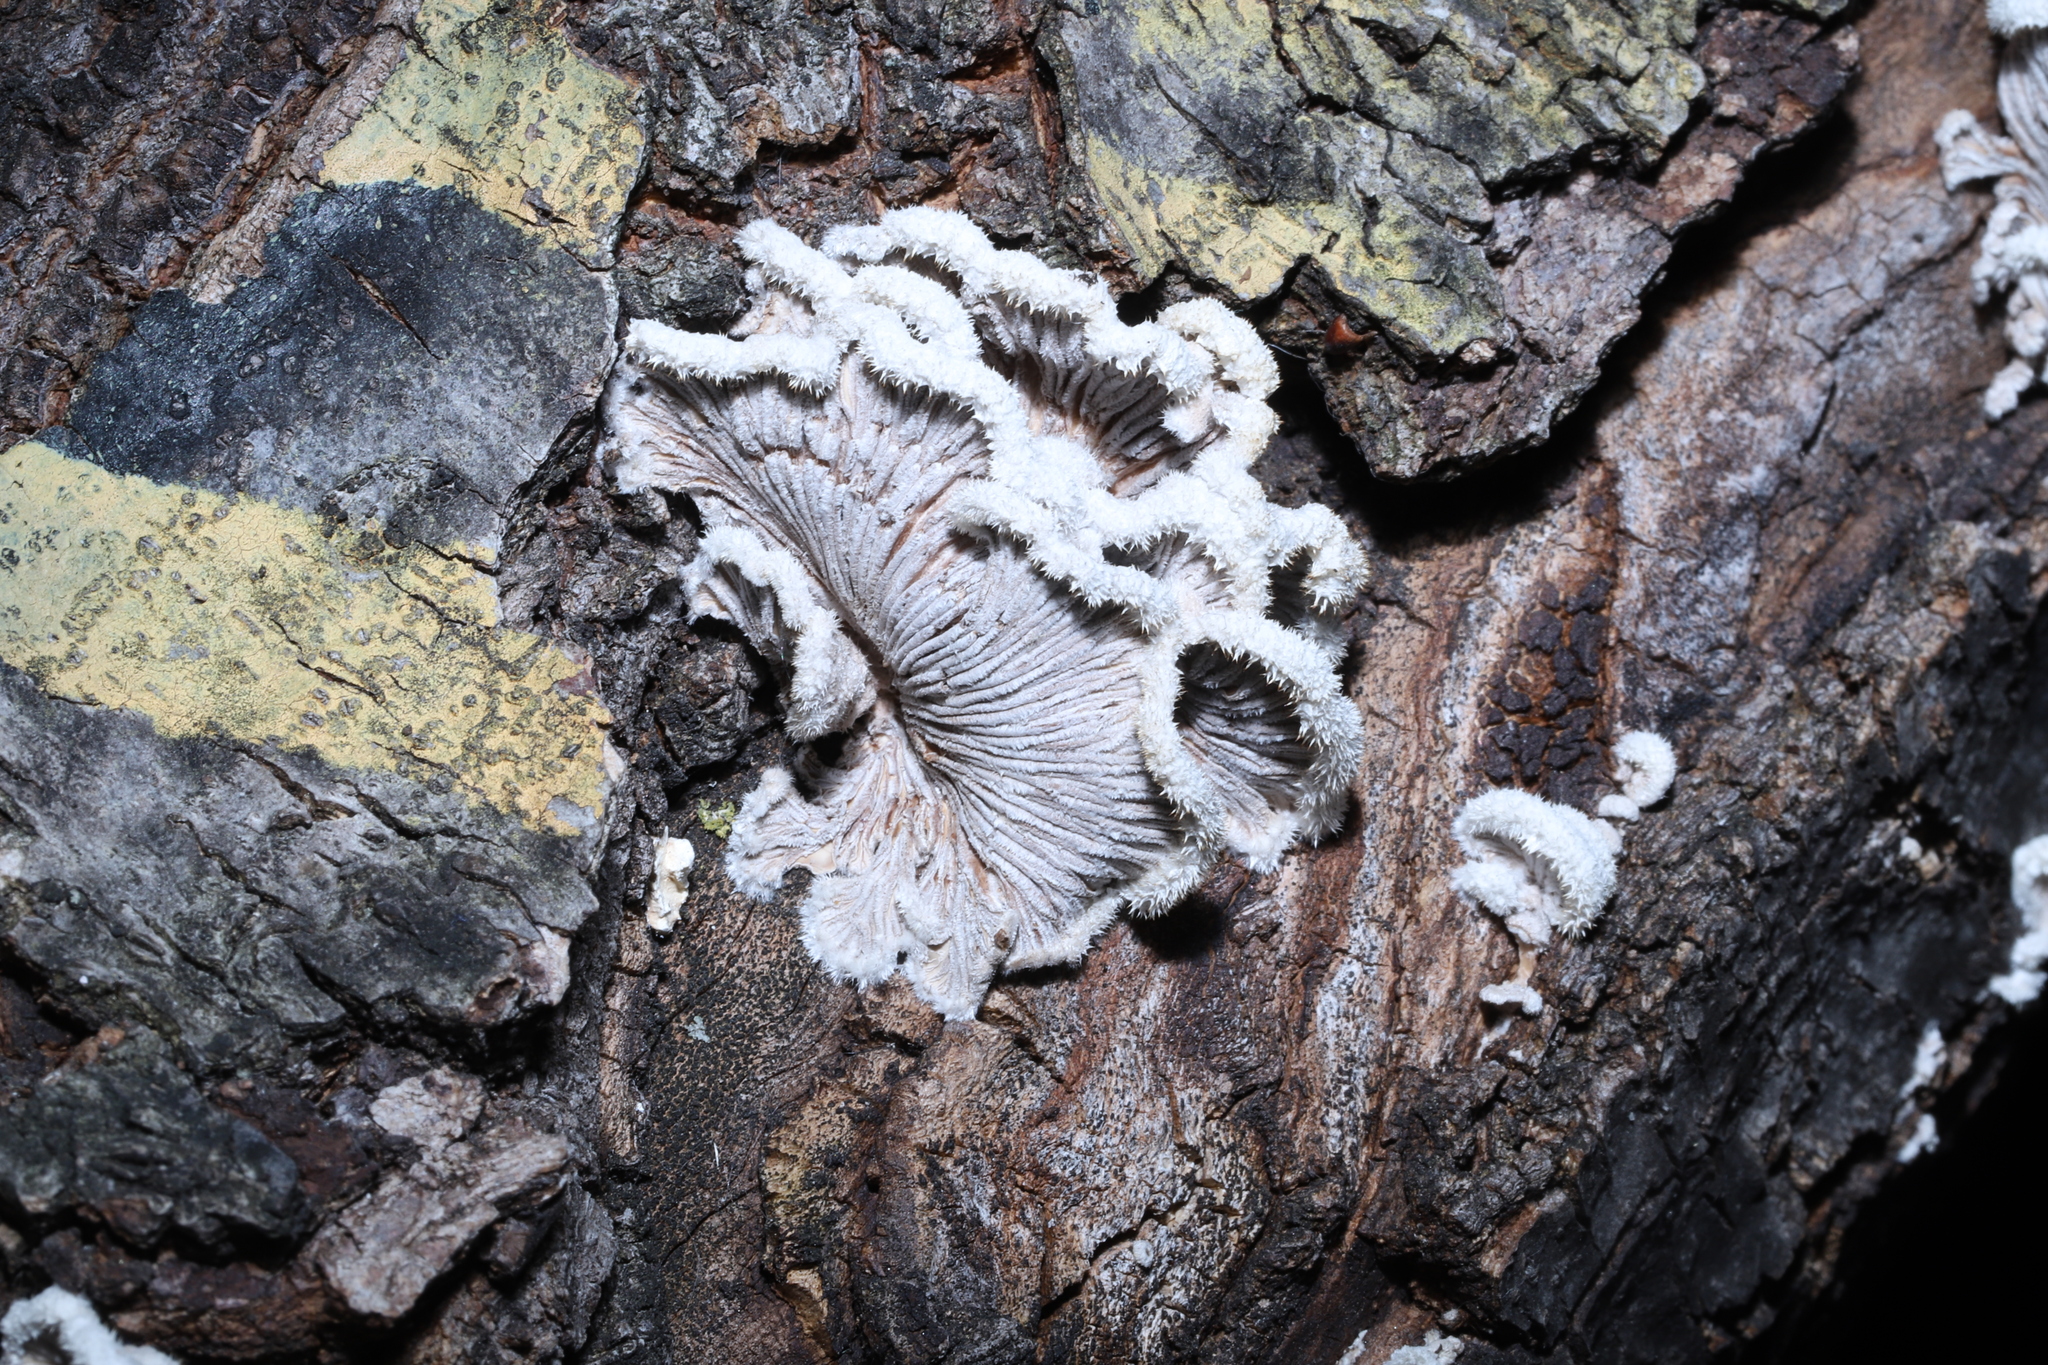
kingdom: Fungi
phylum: Basidiomycota
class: Agaricomycetes
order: Agaricales
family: Schizophyllaceae
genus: Schizophyllum
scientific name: Schizophyllum commune
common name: Common porecrust
